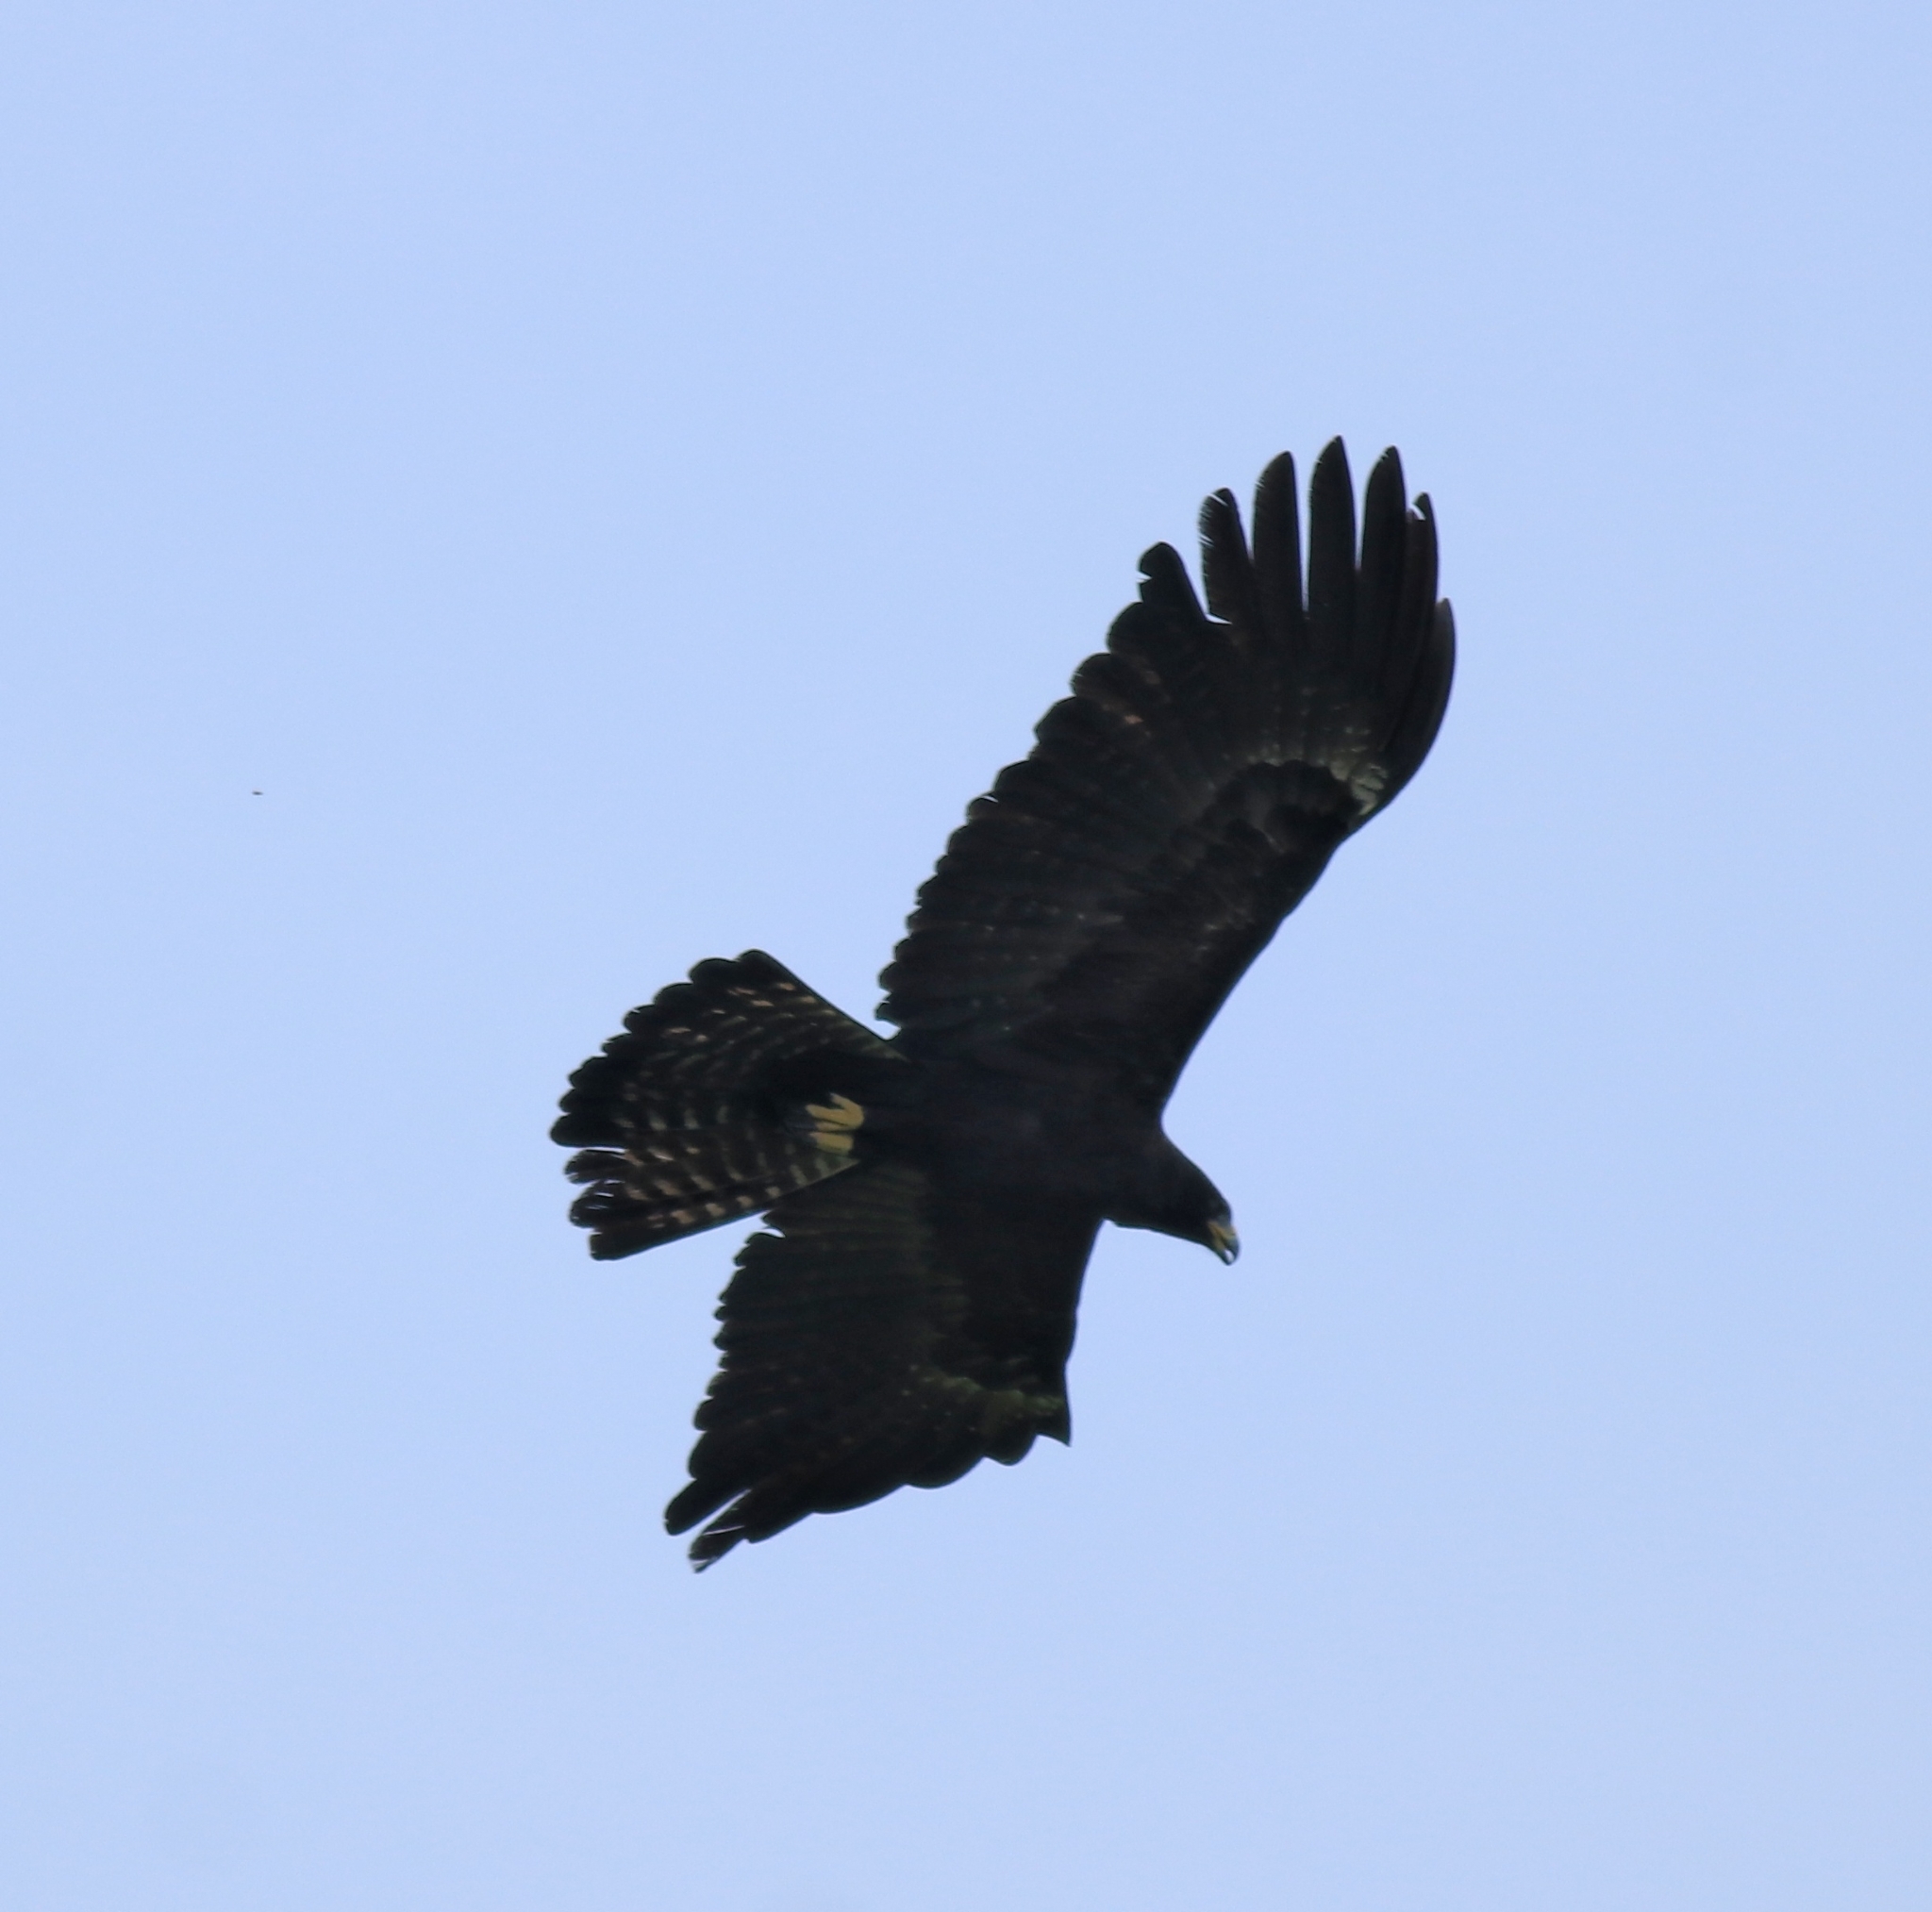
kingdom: Animalia
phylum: Chordata
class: Aves
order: Accipitriformes
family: Accipitridae
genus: Ictinaetus
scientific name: Ictinaetus malayensis
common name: Black eagle
